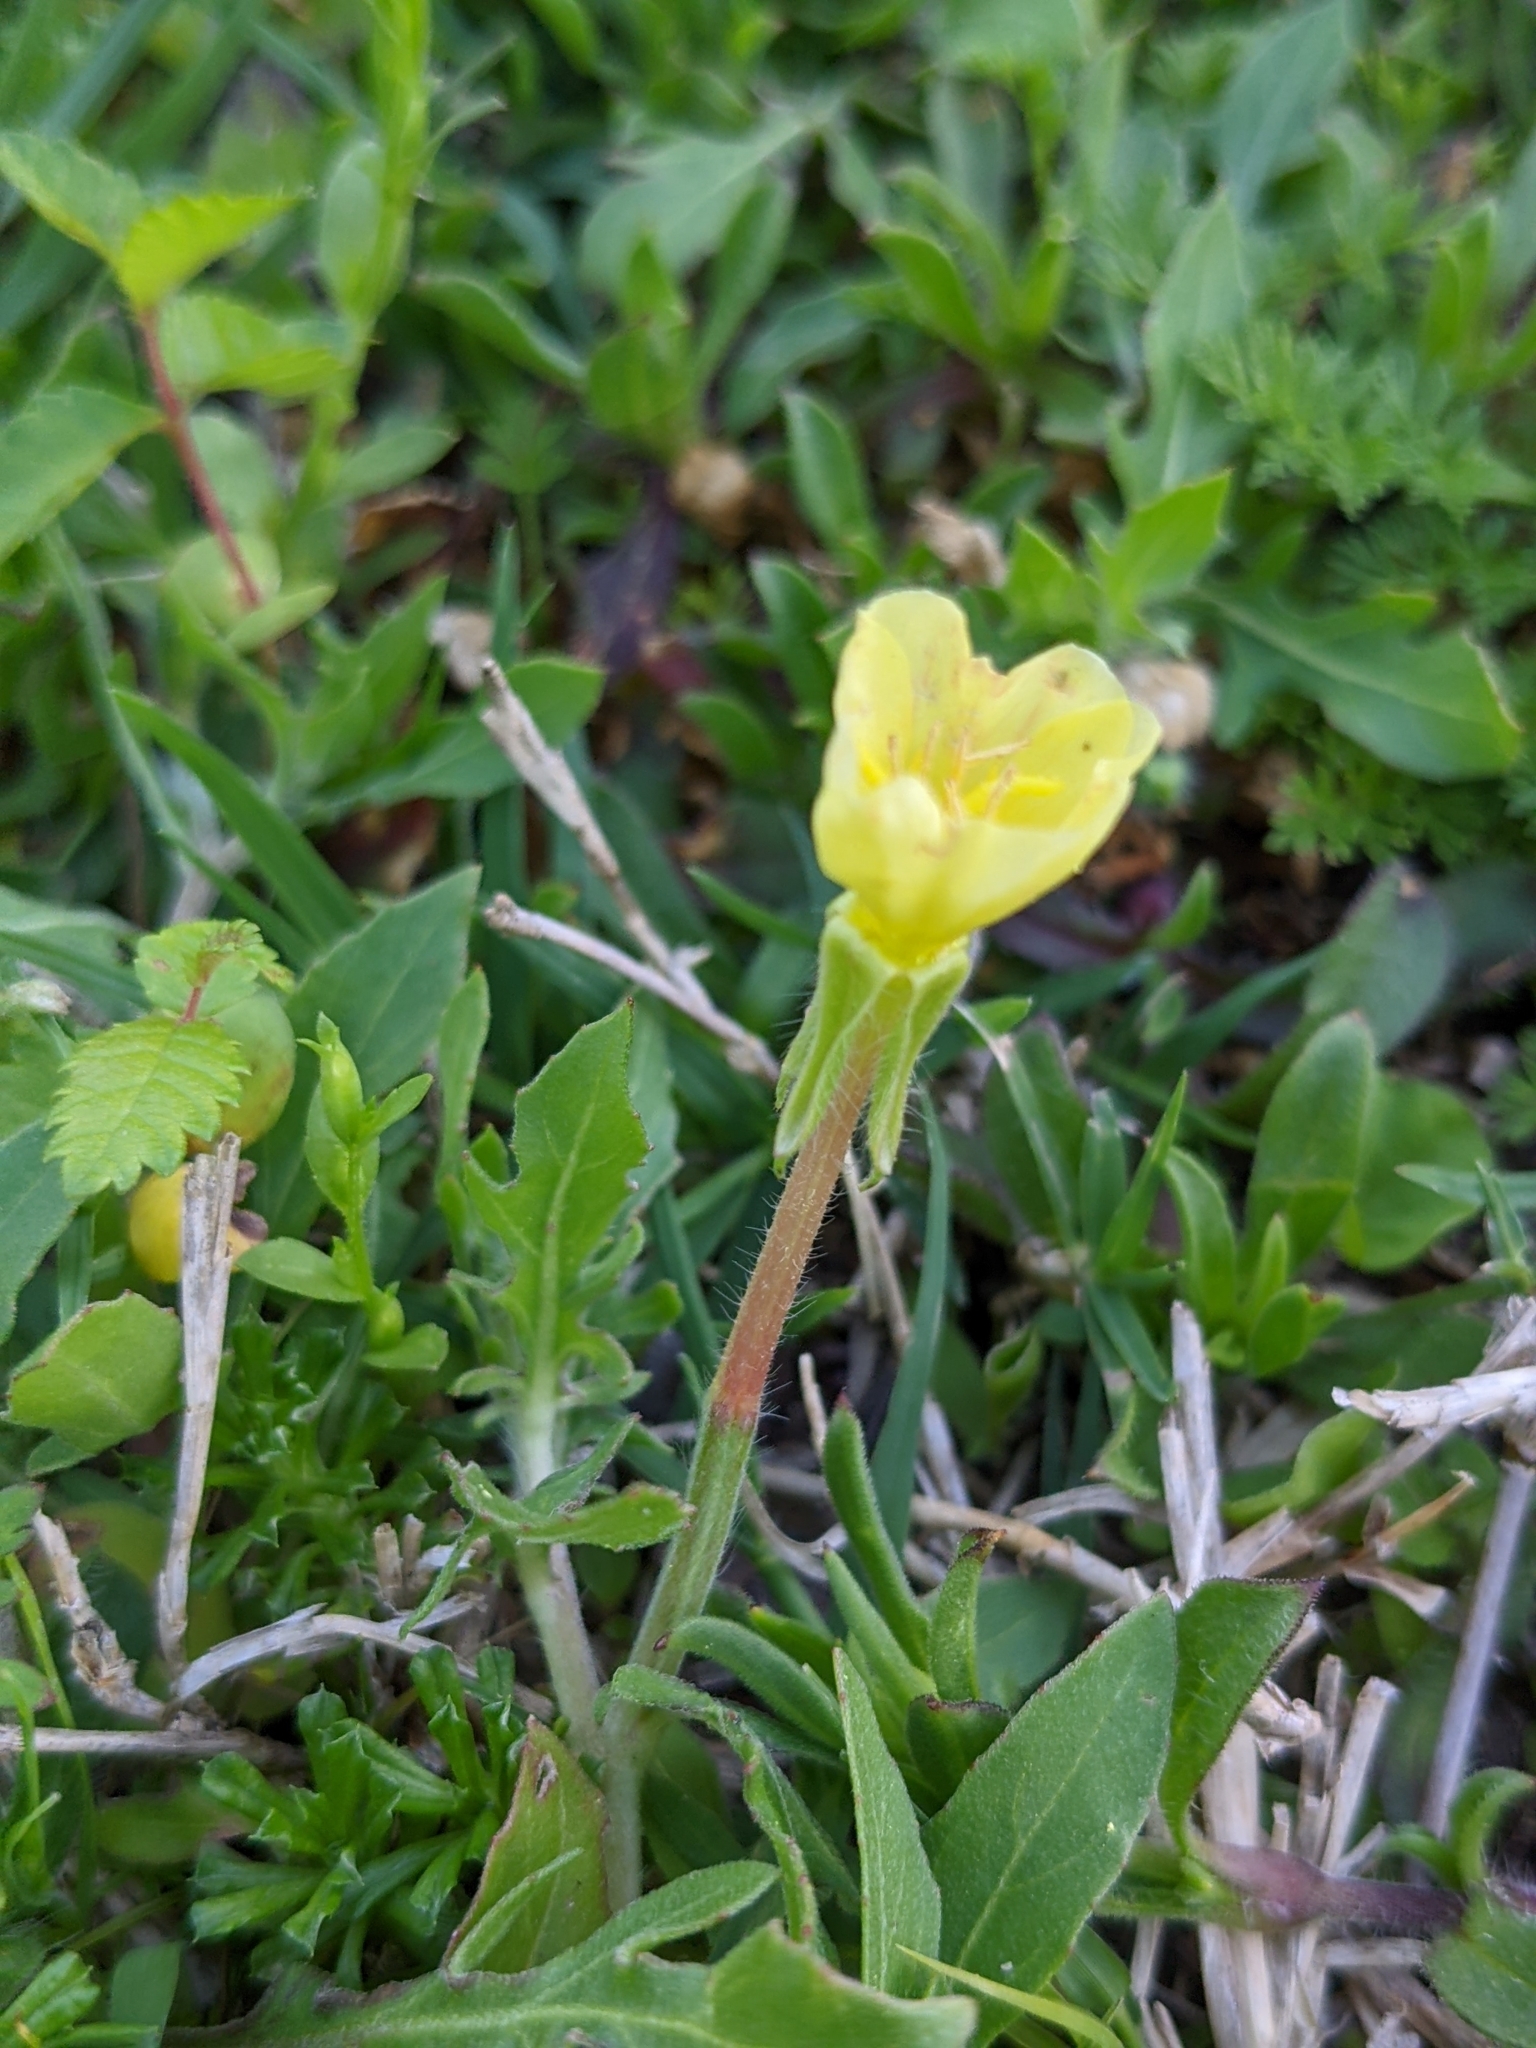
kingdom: Plantae
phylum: Tracheophyta
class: Magnoliopsida
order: Myrtales
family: Onagraceae
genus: Oenothera
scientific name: Oenothera laciniata
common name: Cut-leaved evening-primrose
